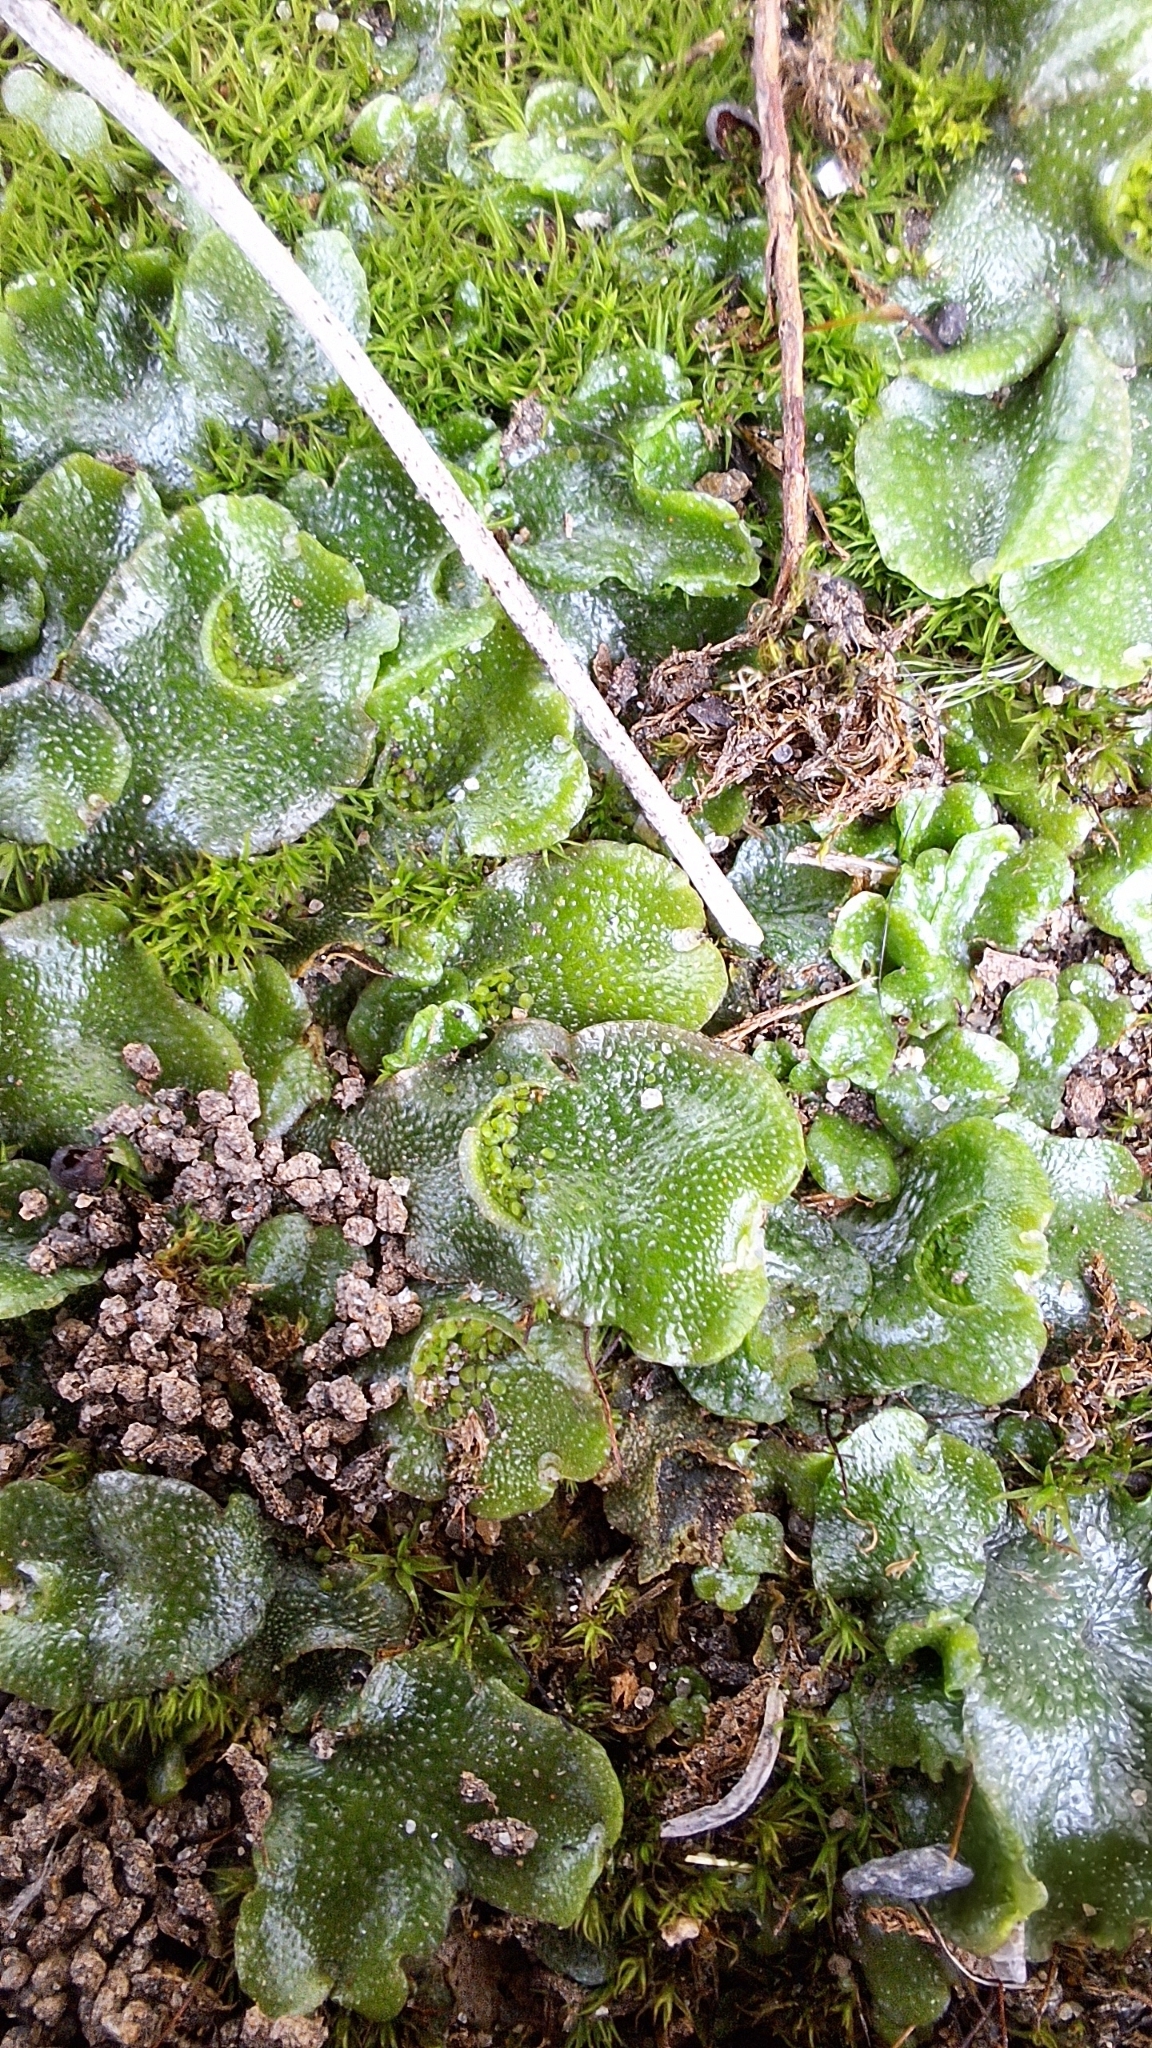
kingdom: Plantae
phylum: Marchantiophyta
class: Marchantiopsida
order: Lunulariales
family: Lunulariaceae
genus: Lunularia
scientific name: Lunularia cruciata
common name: Crescent-cup liverwort
